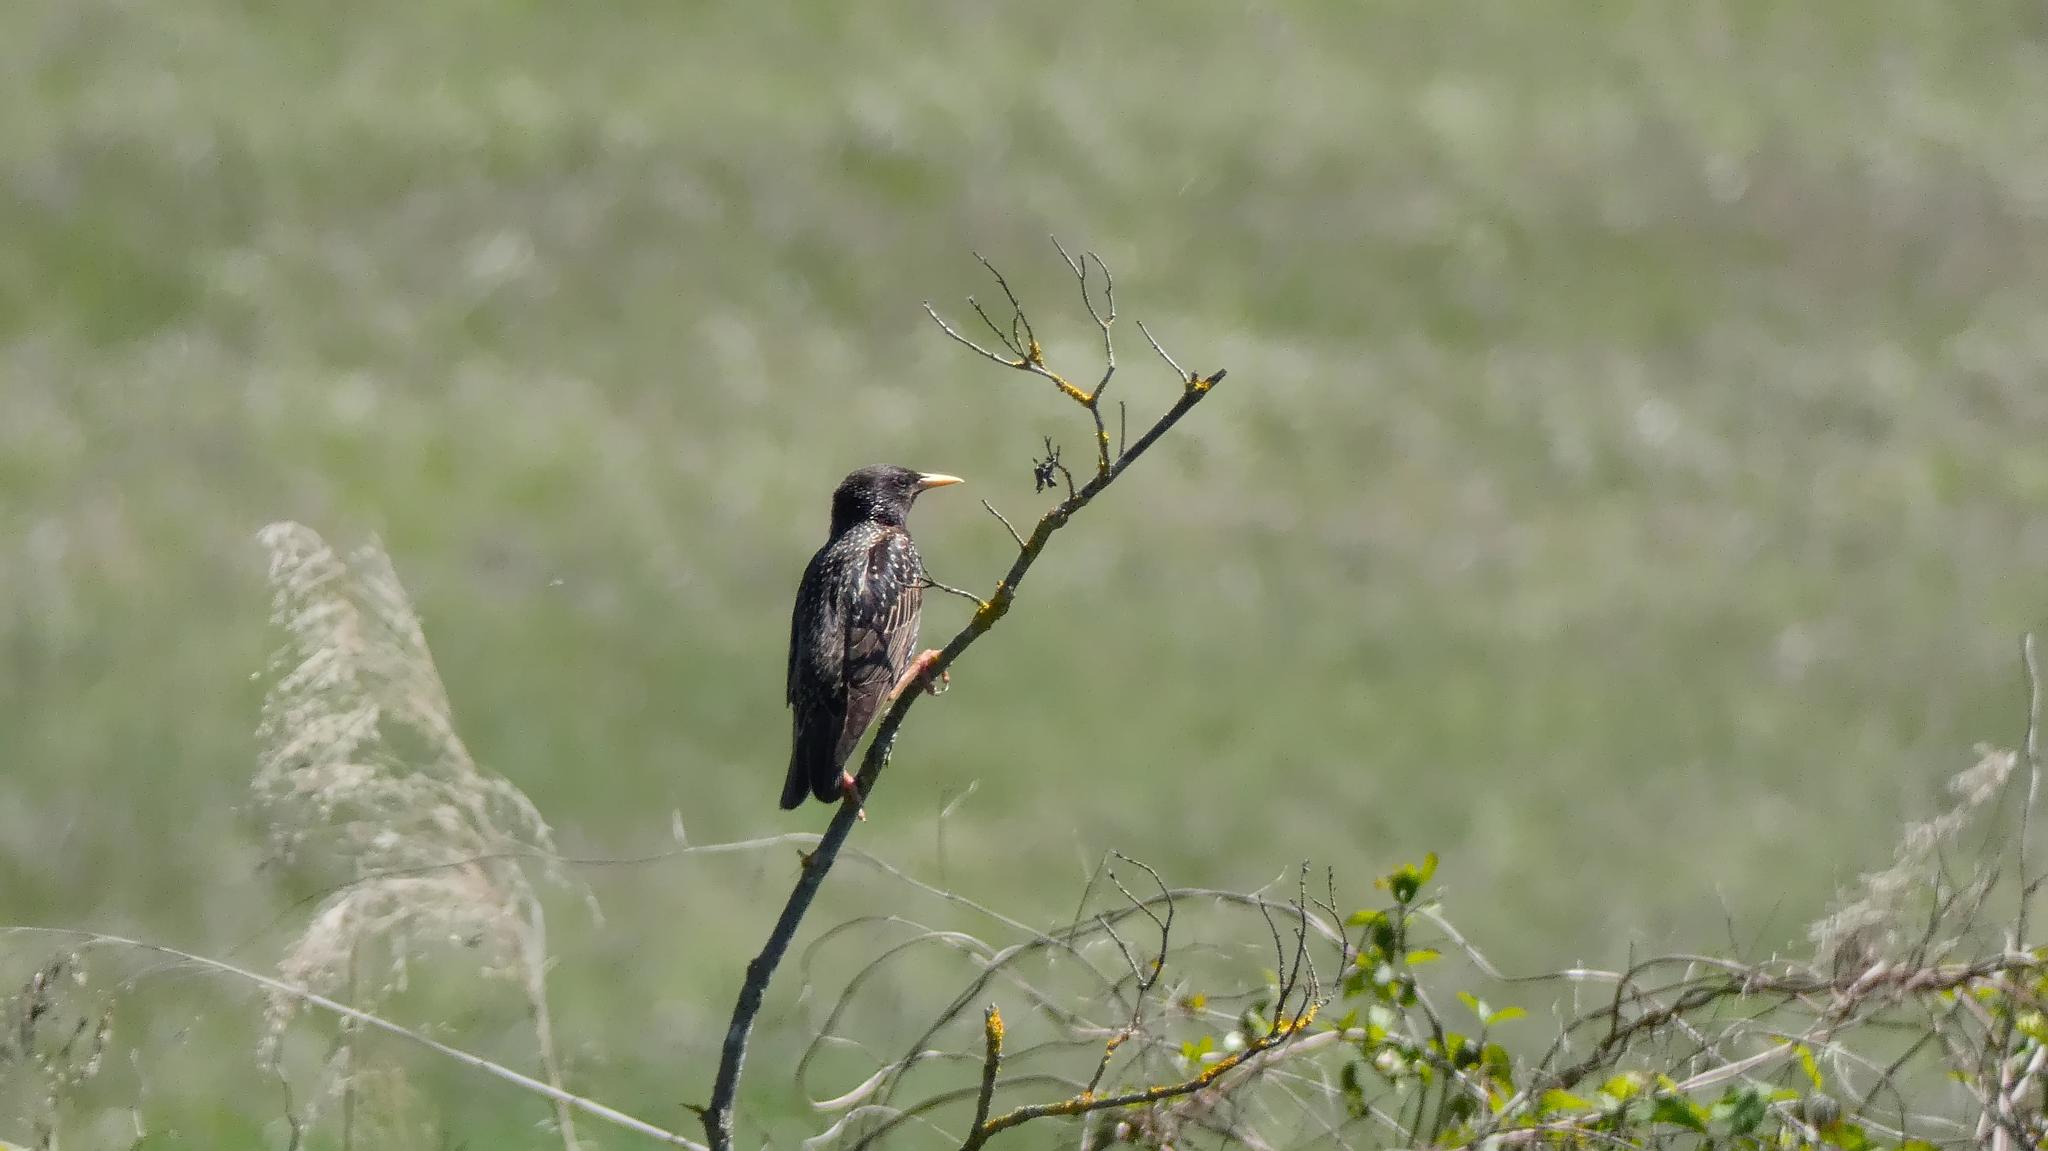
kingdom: Animalia
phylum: Chordata
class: Aves
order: Passeriformes
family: Sturnidae
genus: Sturnus
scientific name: Sturnus vulgaris
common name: Common starling
